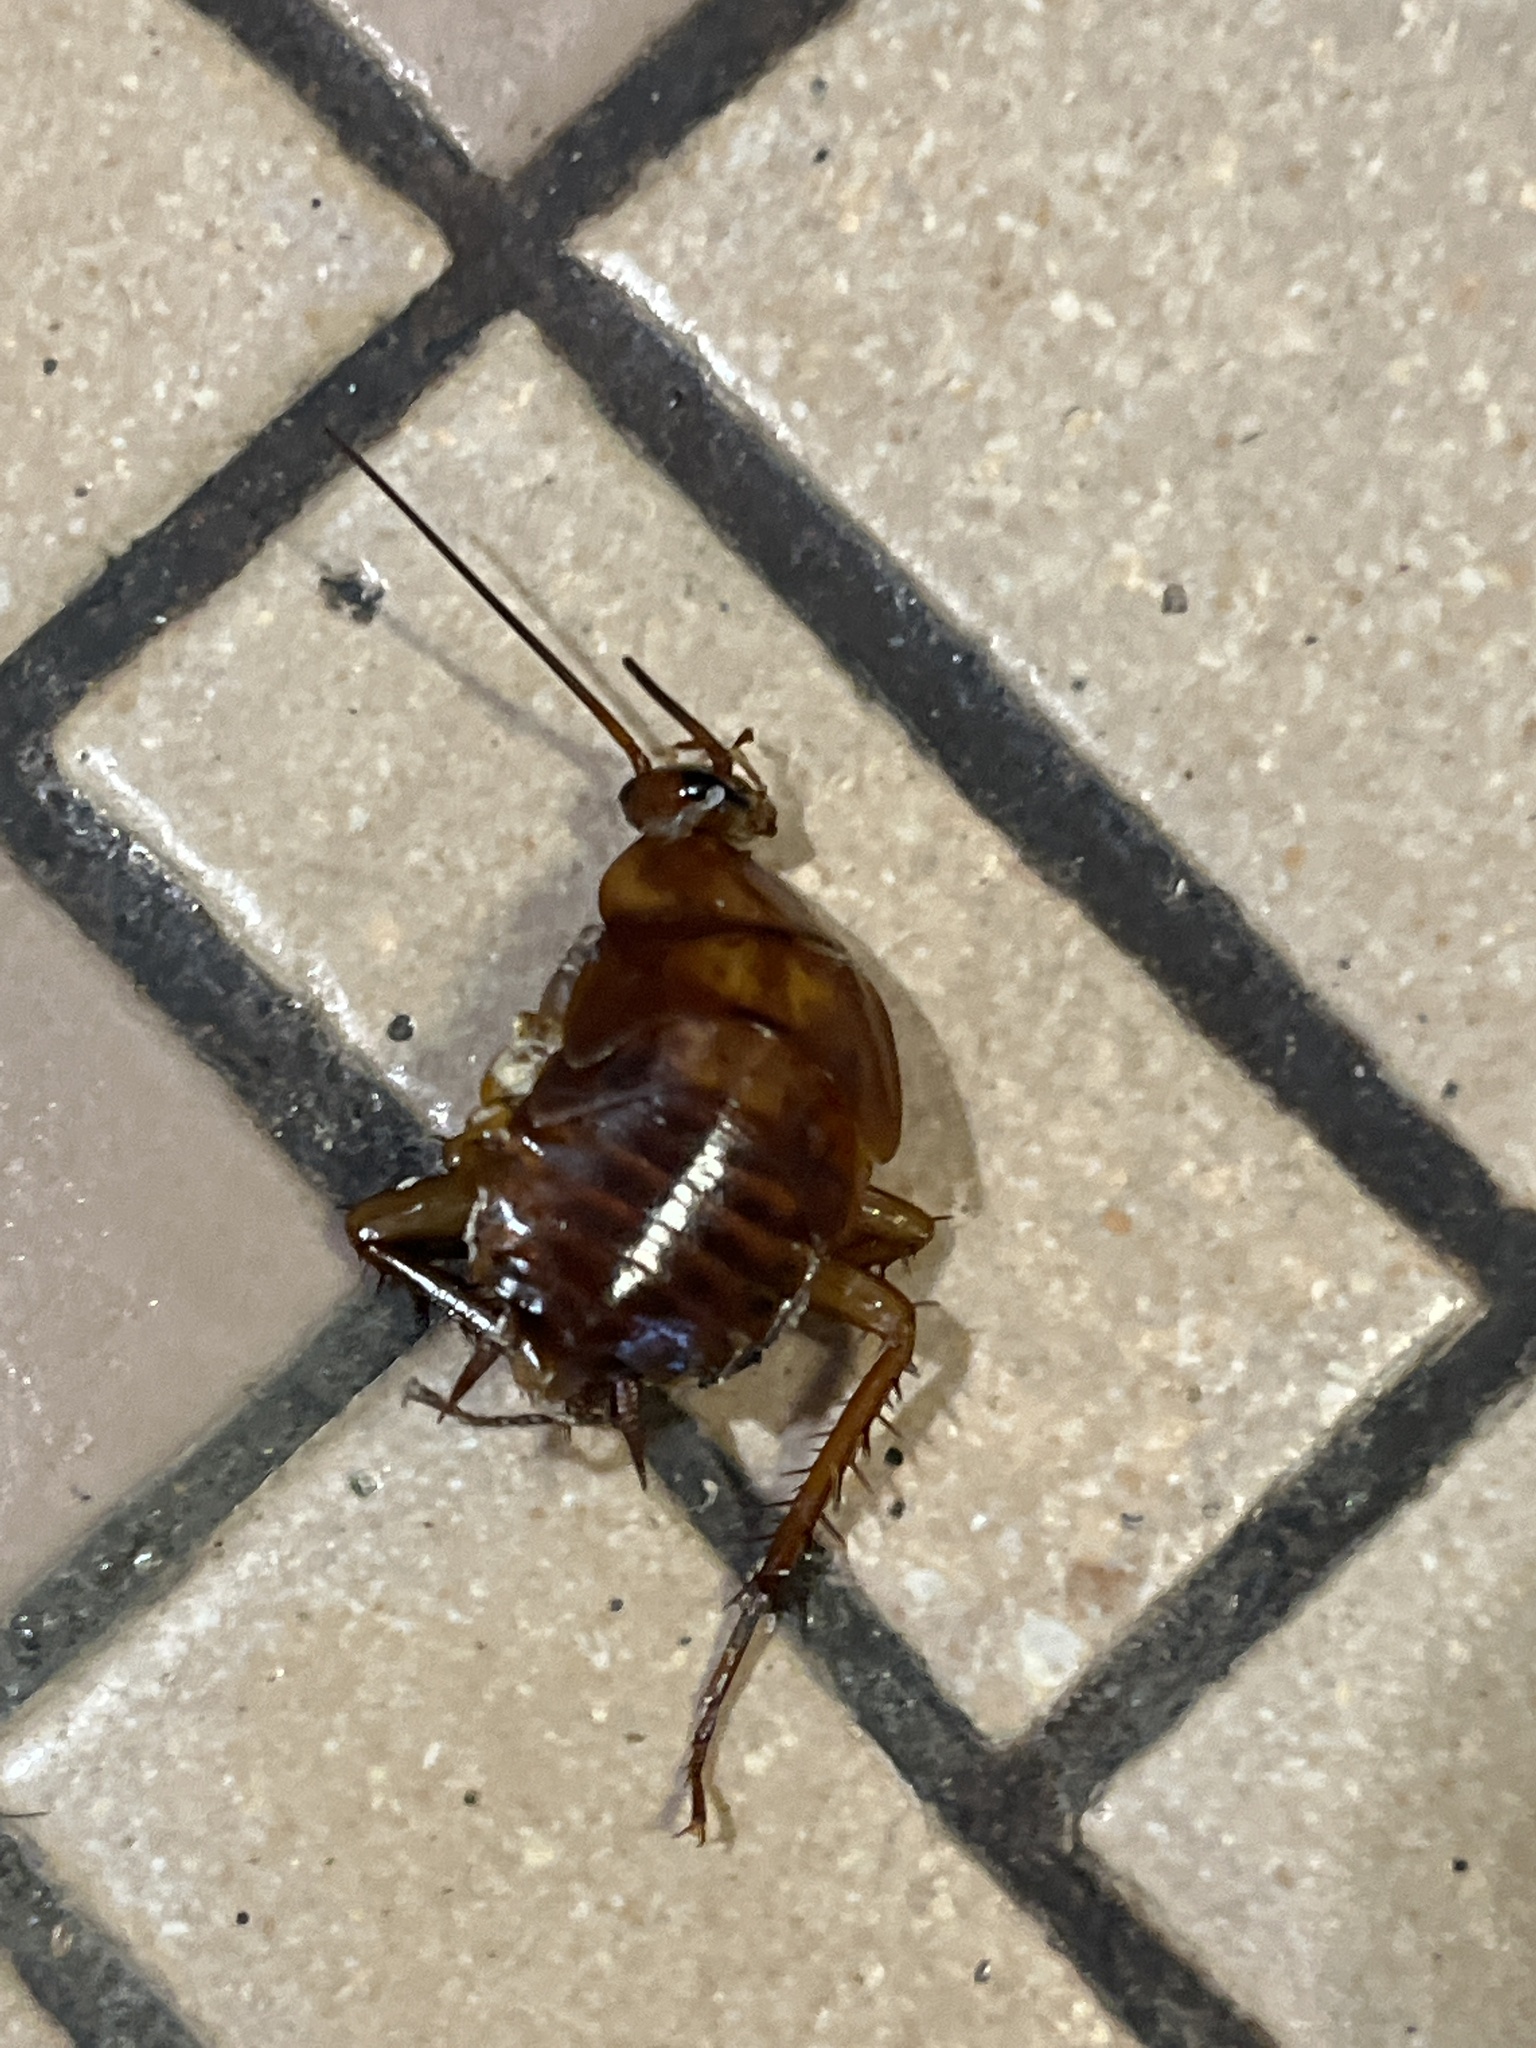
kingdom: Animalia
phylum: Arthropoda
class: Insecta
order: Blattodea
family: Blattidae
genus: Periplaneta
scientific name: Periplaneta
